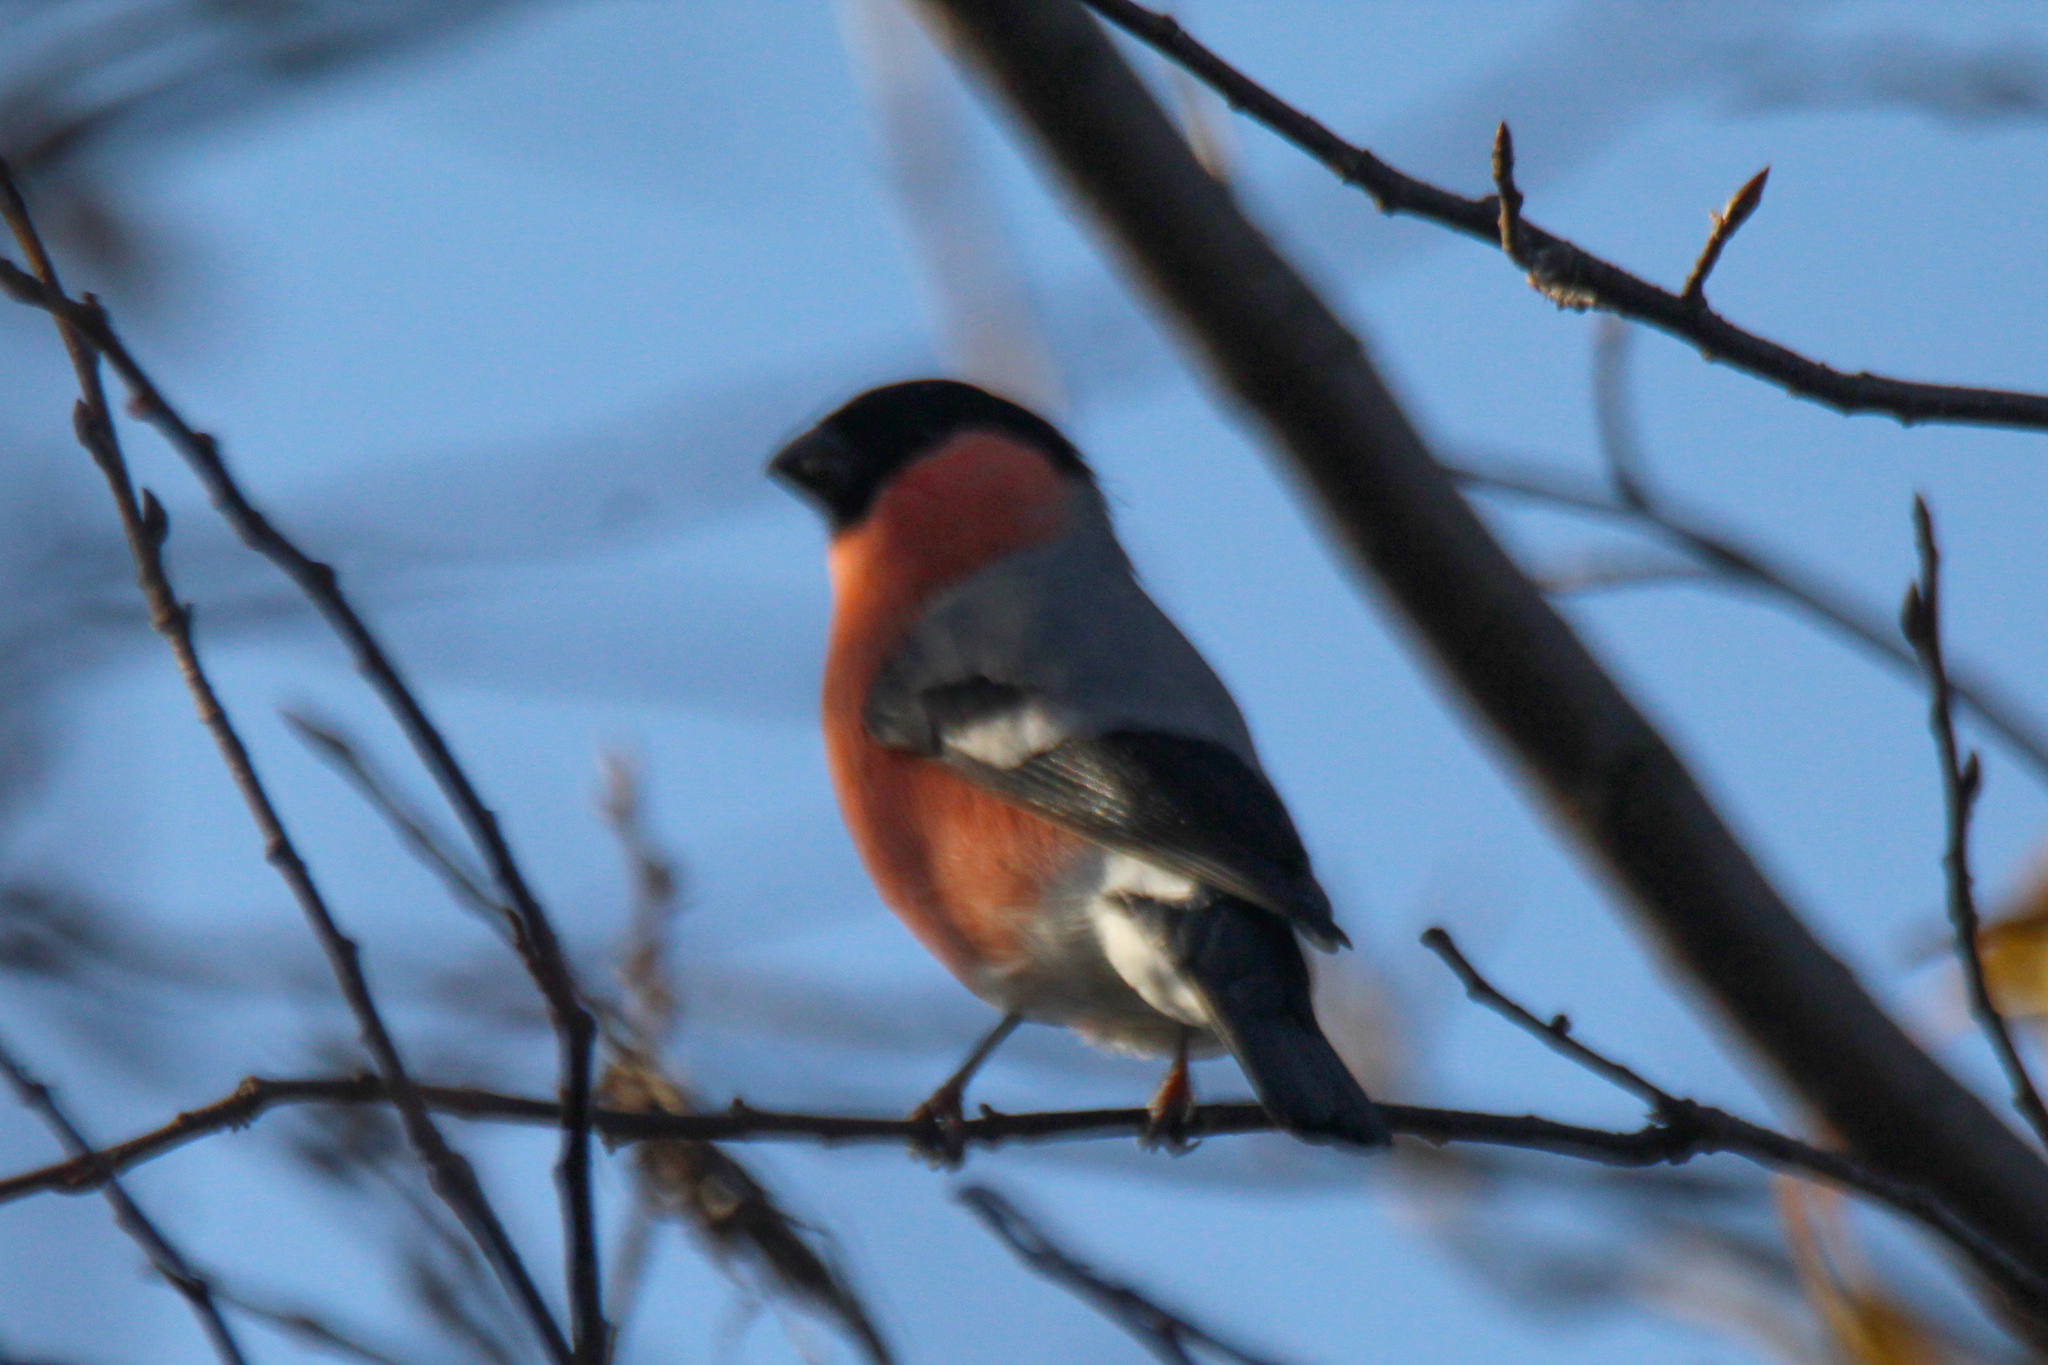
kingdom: Animalia
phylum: Chordata
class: Aves
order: Passeriformes
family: Fringillidae
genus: Pyrrhula
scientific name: Pyrrhula pyrrhula
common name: Eurasian bullfinch
